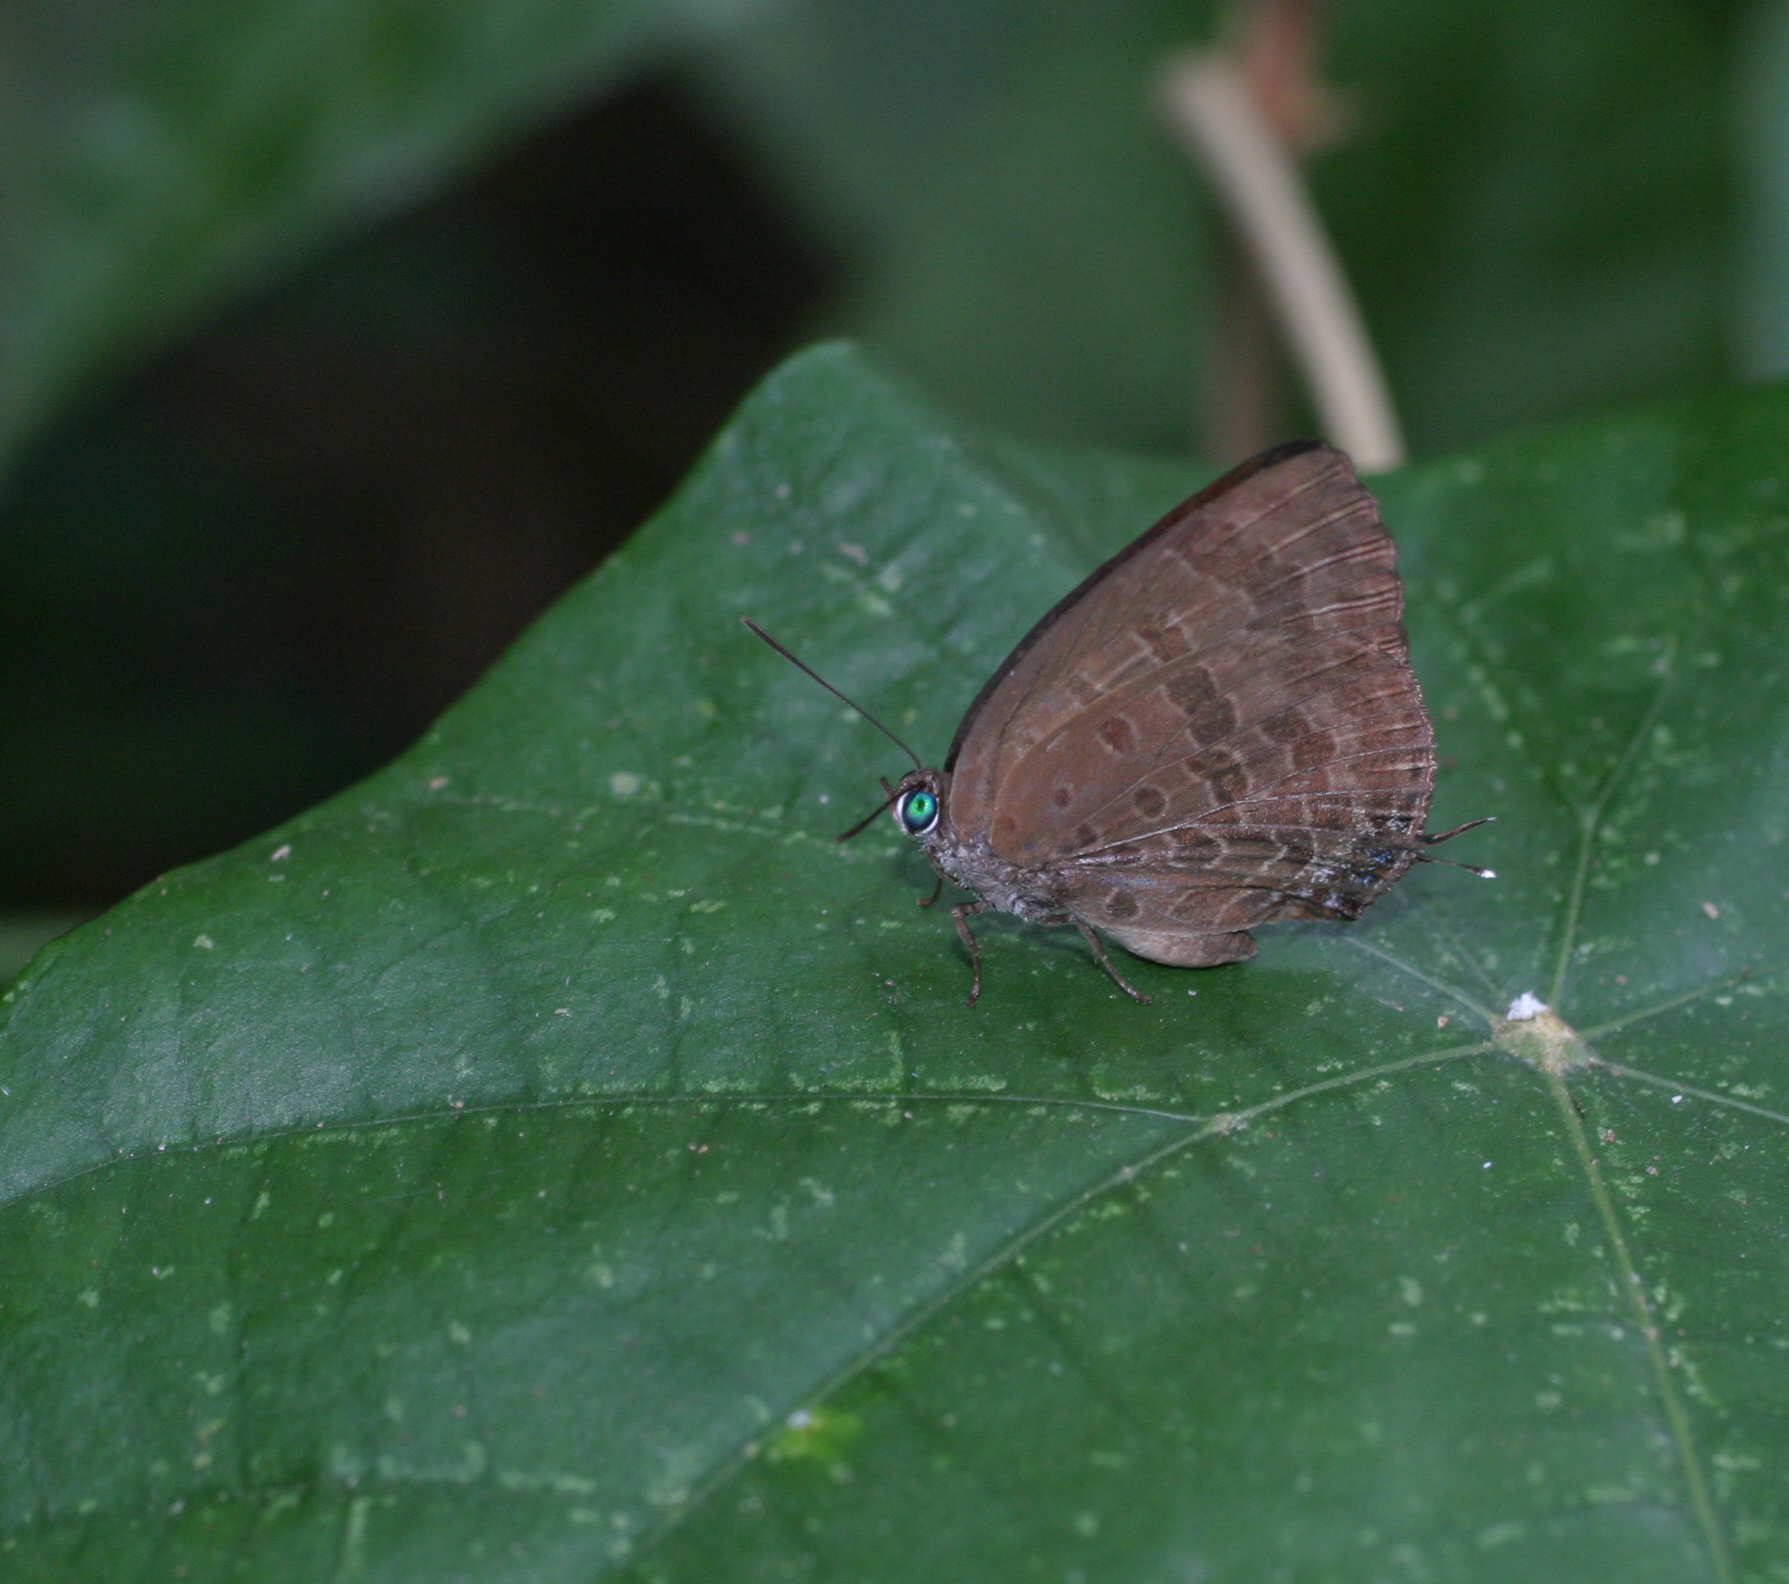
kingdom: Animalia
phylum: Arthropoda
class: Insecta
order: Lepidoptera
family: Lycaenidae
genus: Arhopala
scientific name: Arhopala athada
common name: Vinous oakblue
